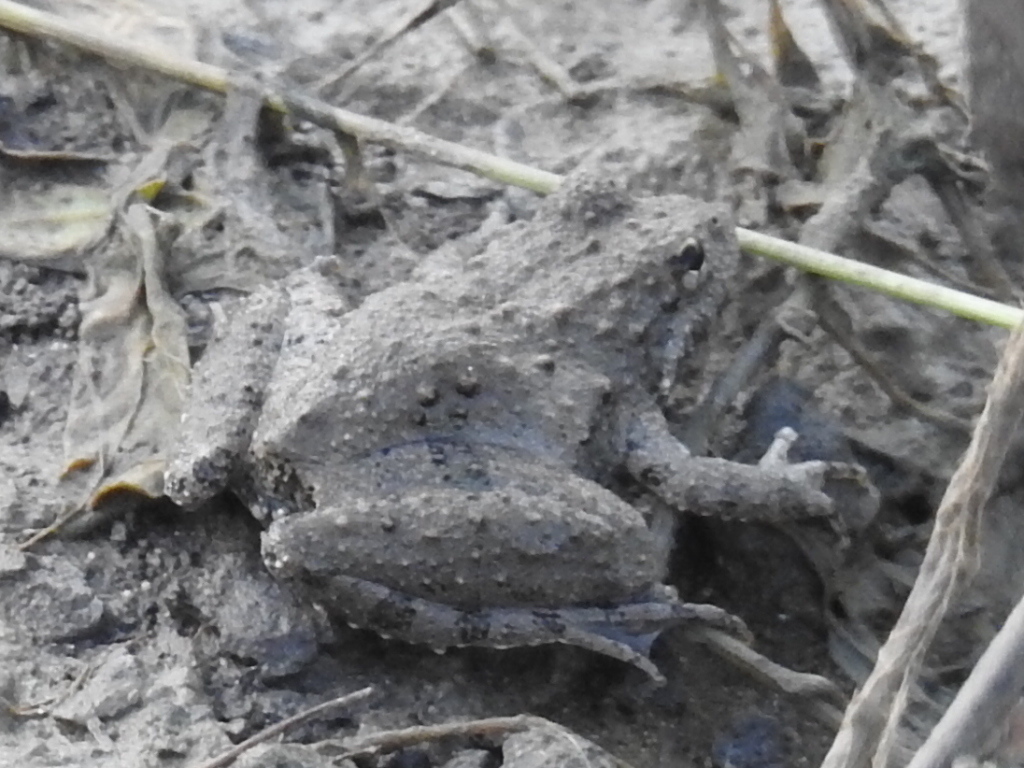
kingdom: Animalia
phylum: Chordata
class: Amphibia
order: Anura
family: Hylidae
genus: Acris
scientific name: Acris blanchardi
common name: Blanchard's cricket frog
